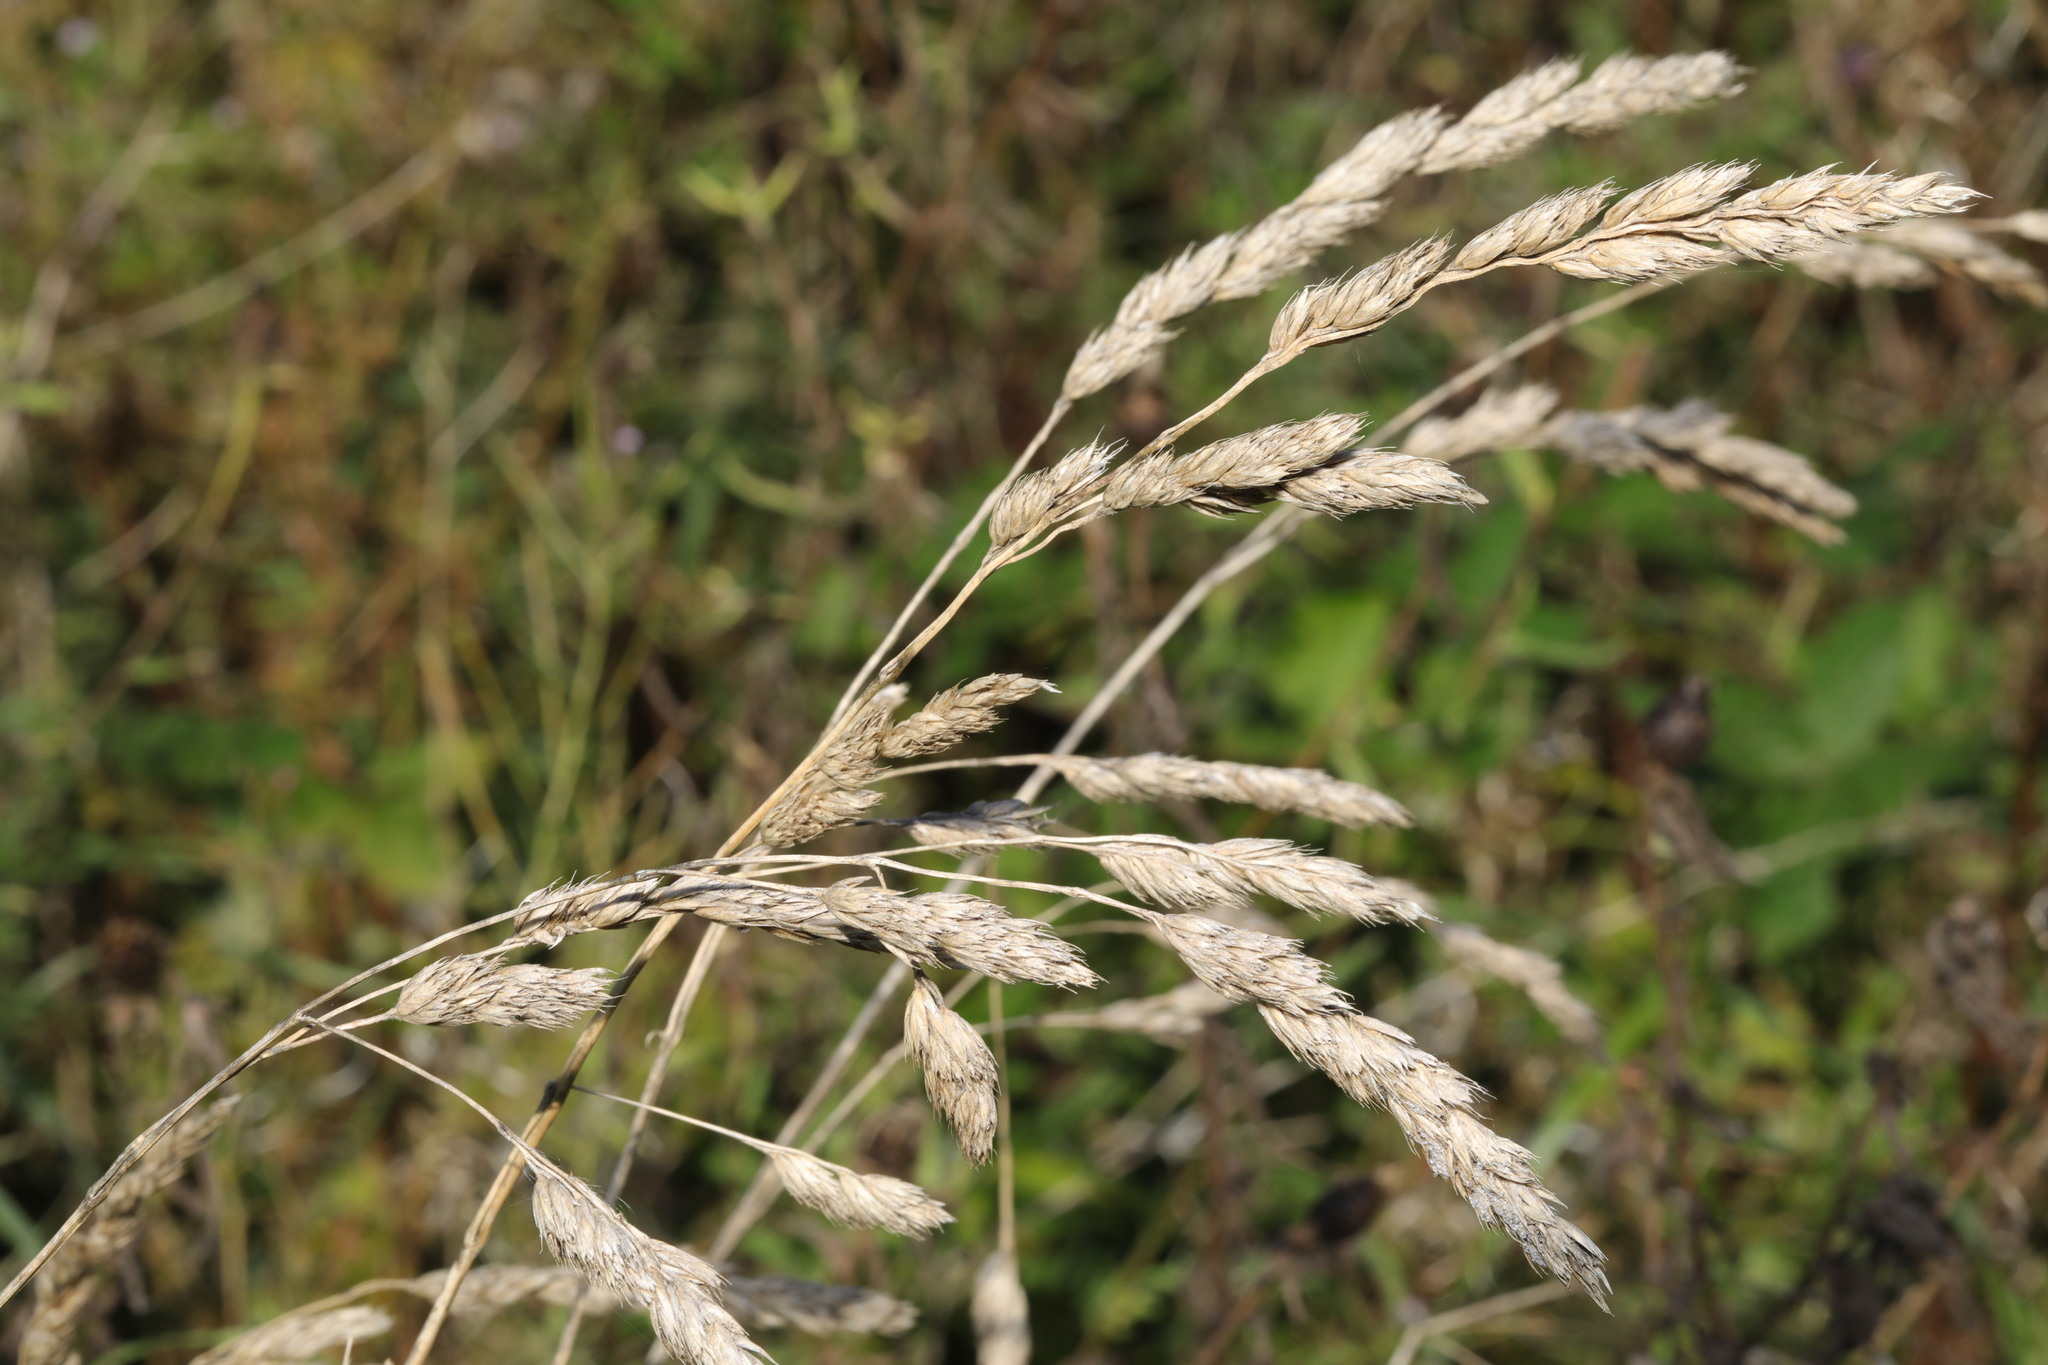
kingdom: Plantae
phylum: Tracheophyta
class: Liliopsida
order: Poales
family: Poaceae
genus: Dactylis
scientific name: Dactylis glomerata
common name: Orchardgrass
